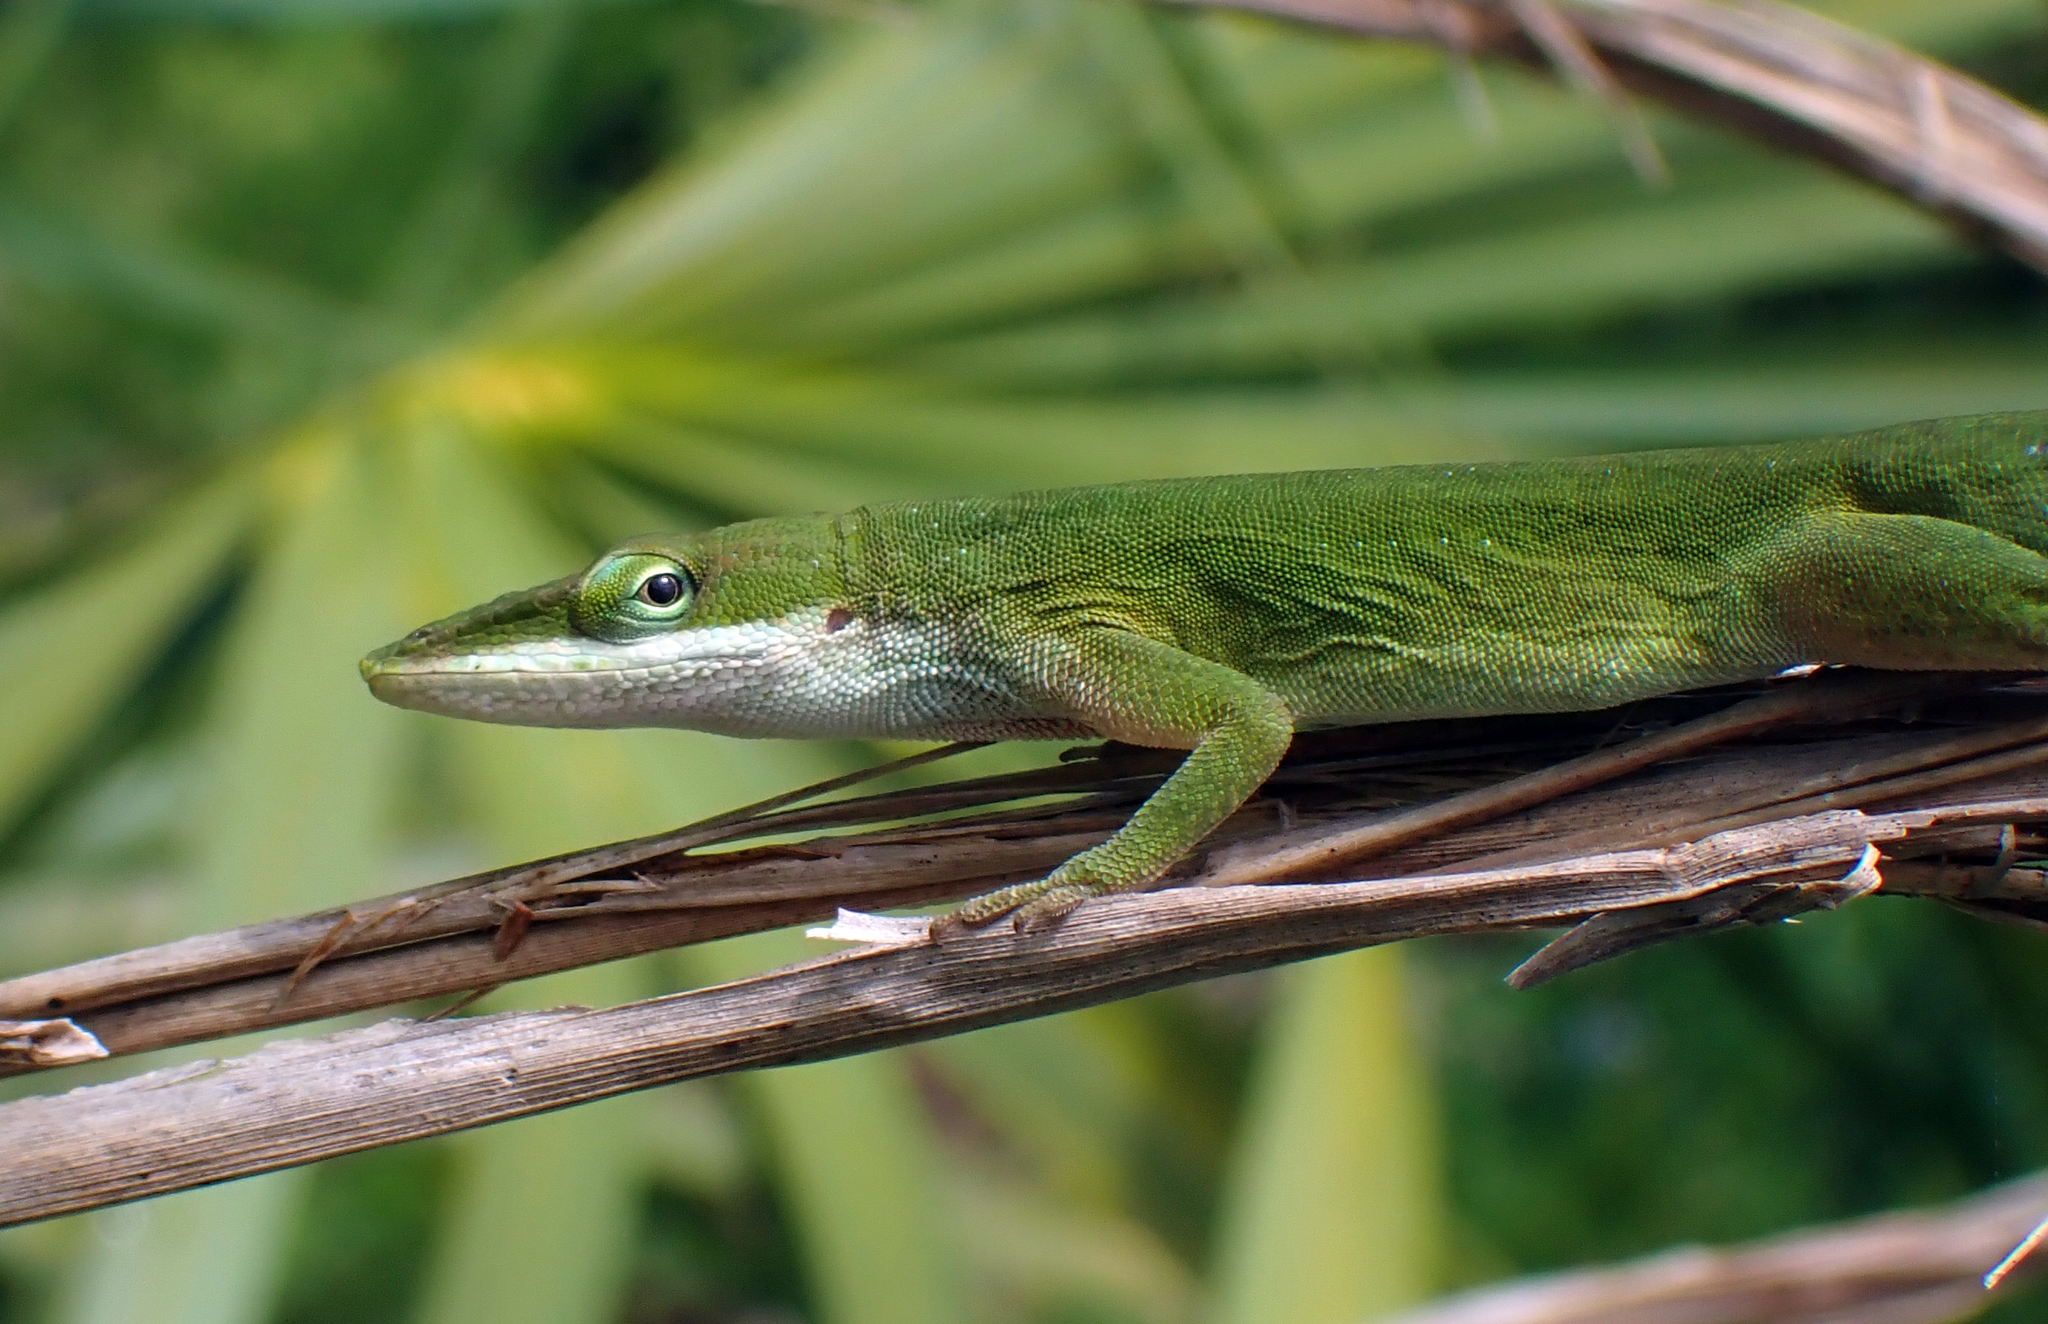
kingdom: Animalia
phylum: Chordata
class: Squamata
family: Dactyloidae
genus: Anolis
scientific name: Anolis carolinensis
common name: Green anole
